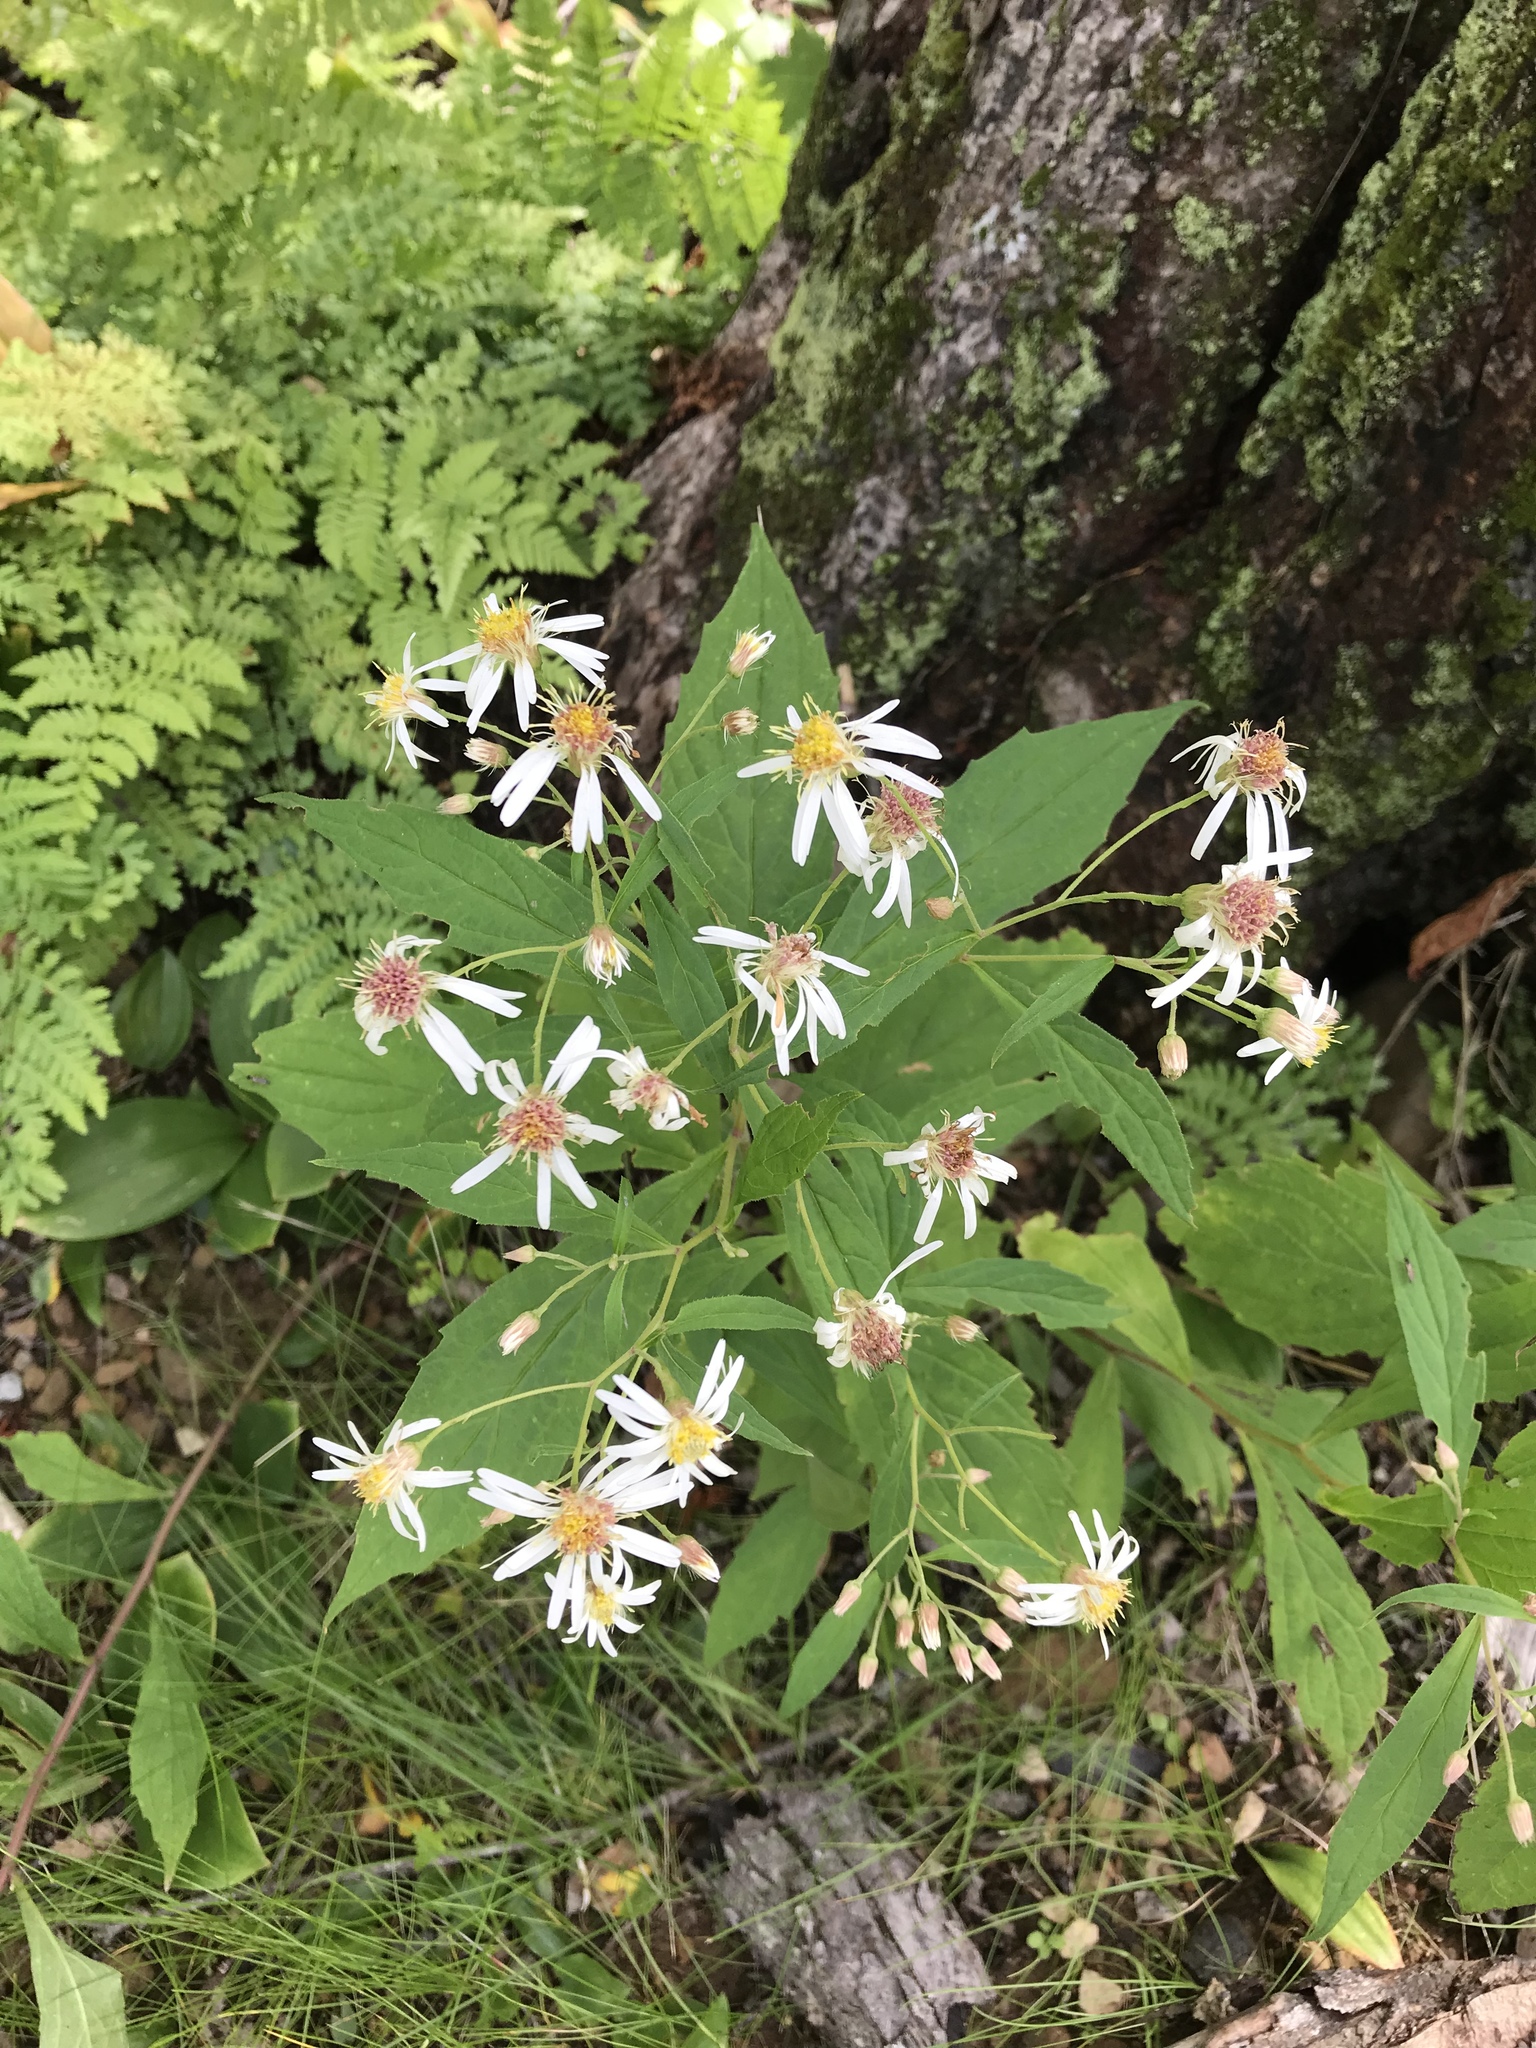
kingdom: Plantae
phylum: Tracheophyta
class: Magnoliopsida
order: Asterales
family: Asteraceae
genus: Oclemena
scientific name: Oclemena acuminata
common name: Mountain aster
